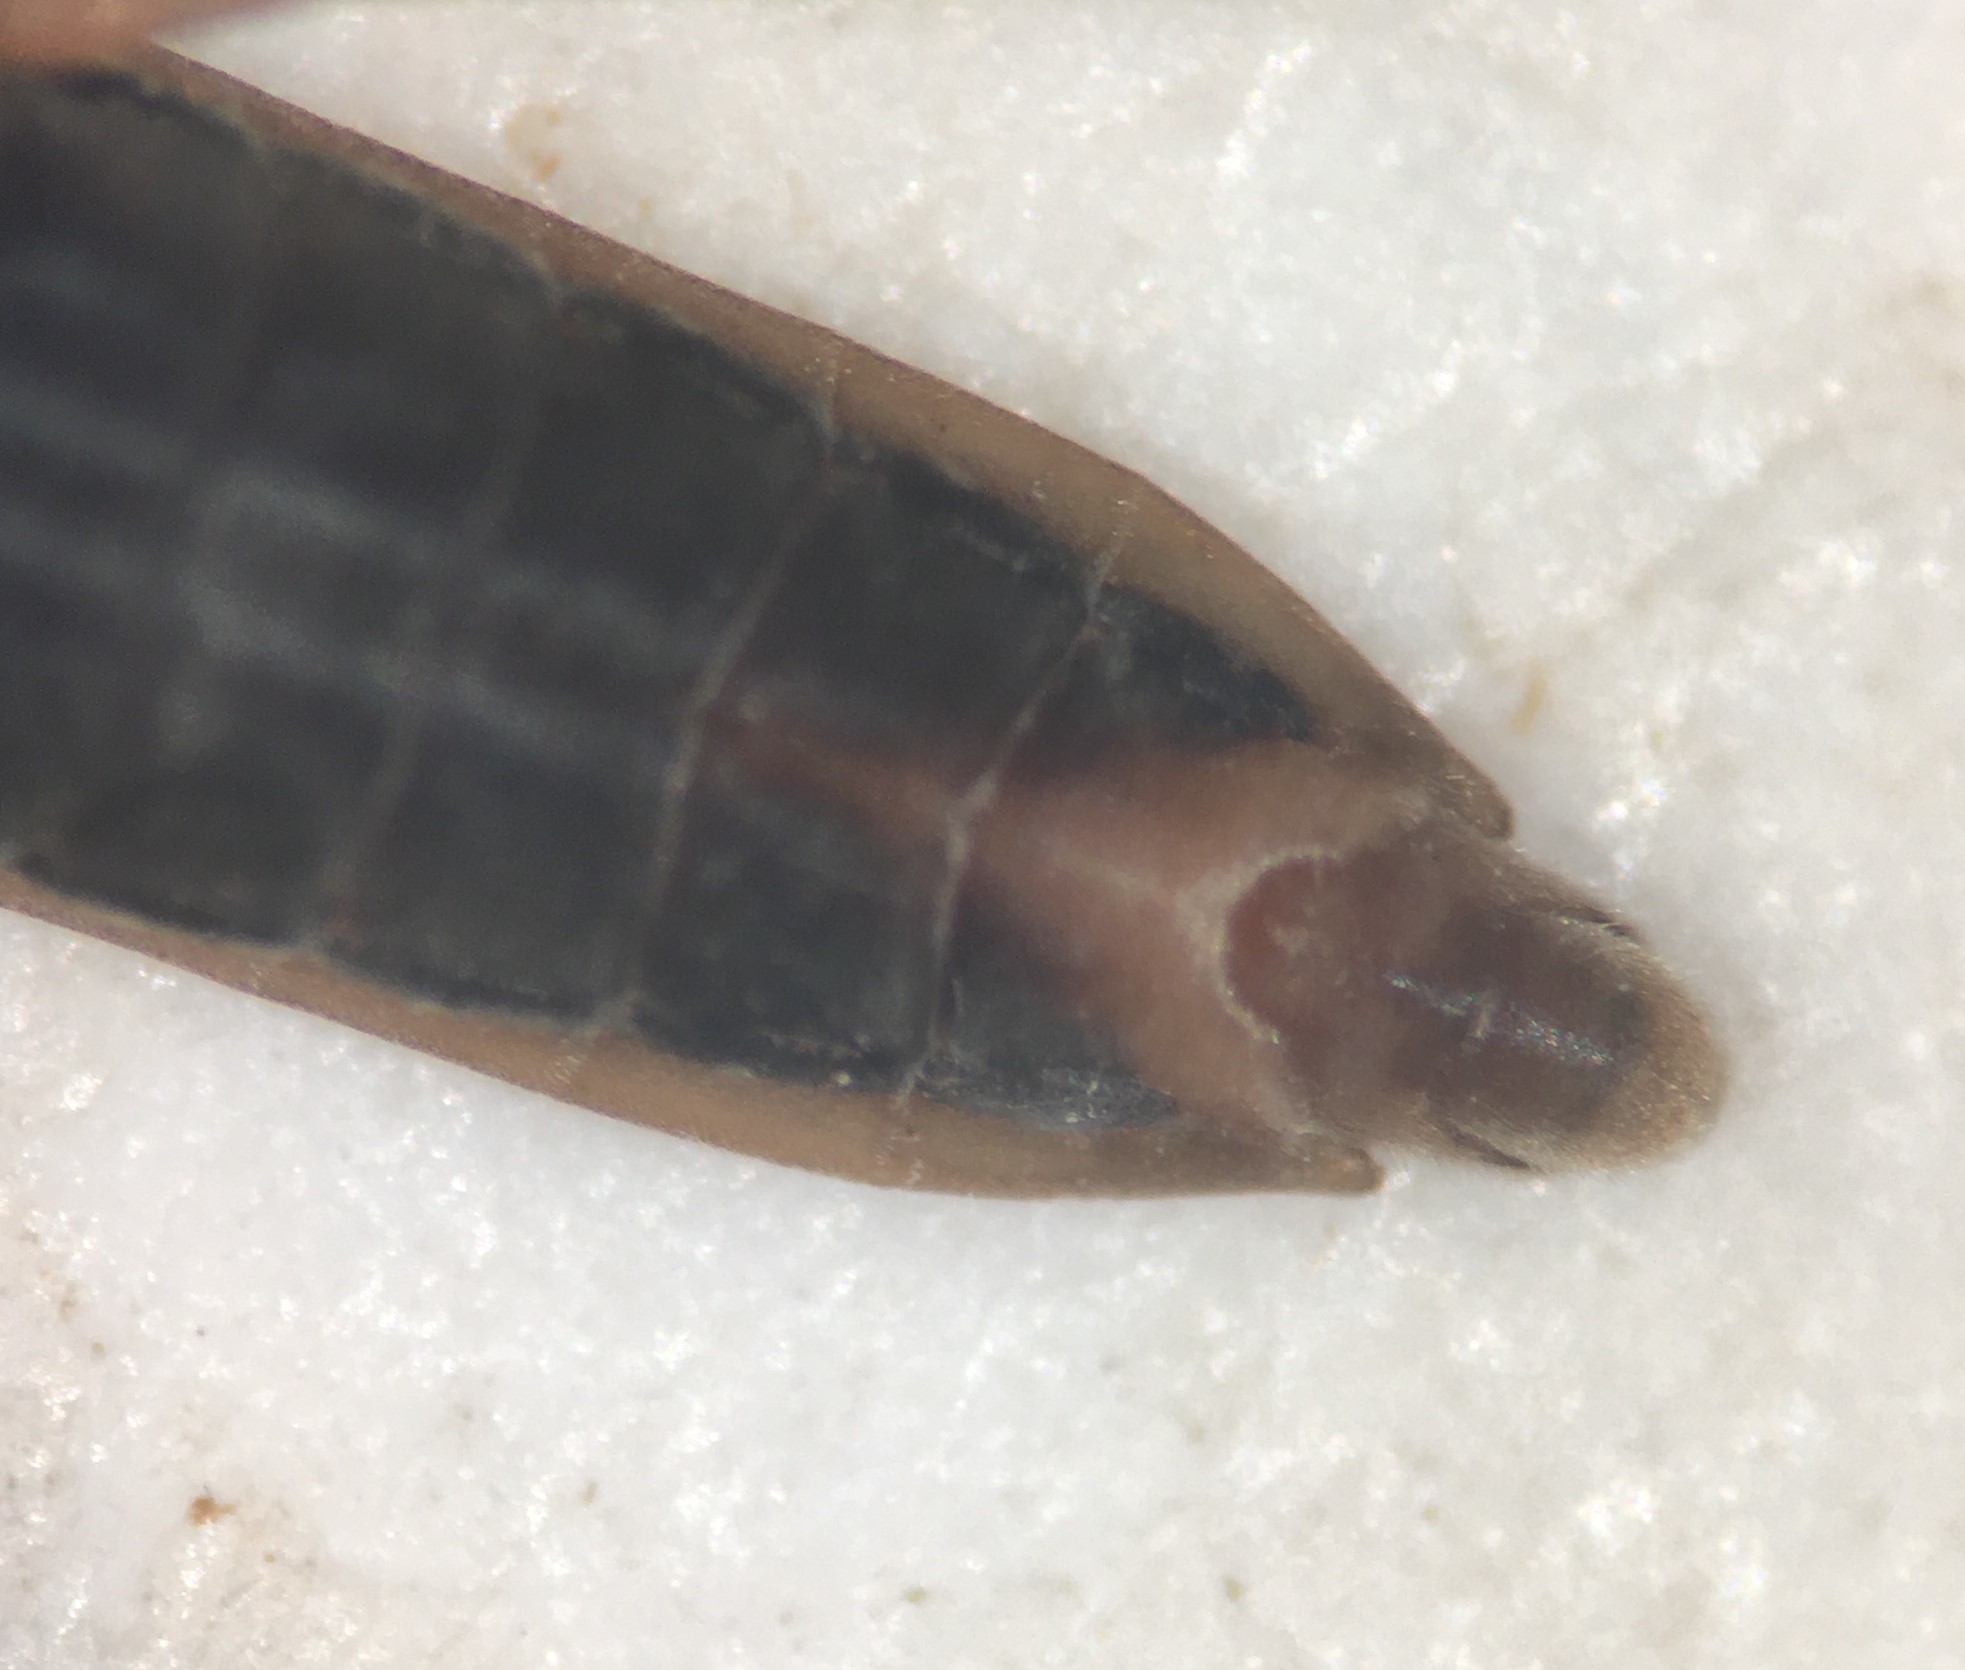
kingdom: Animalia
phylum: Arthropoda
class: Insecta
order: Hemiptera
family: Gerridae
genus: Gerris
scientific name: Gerris insperatus
